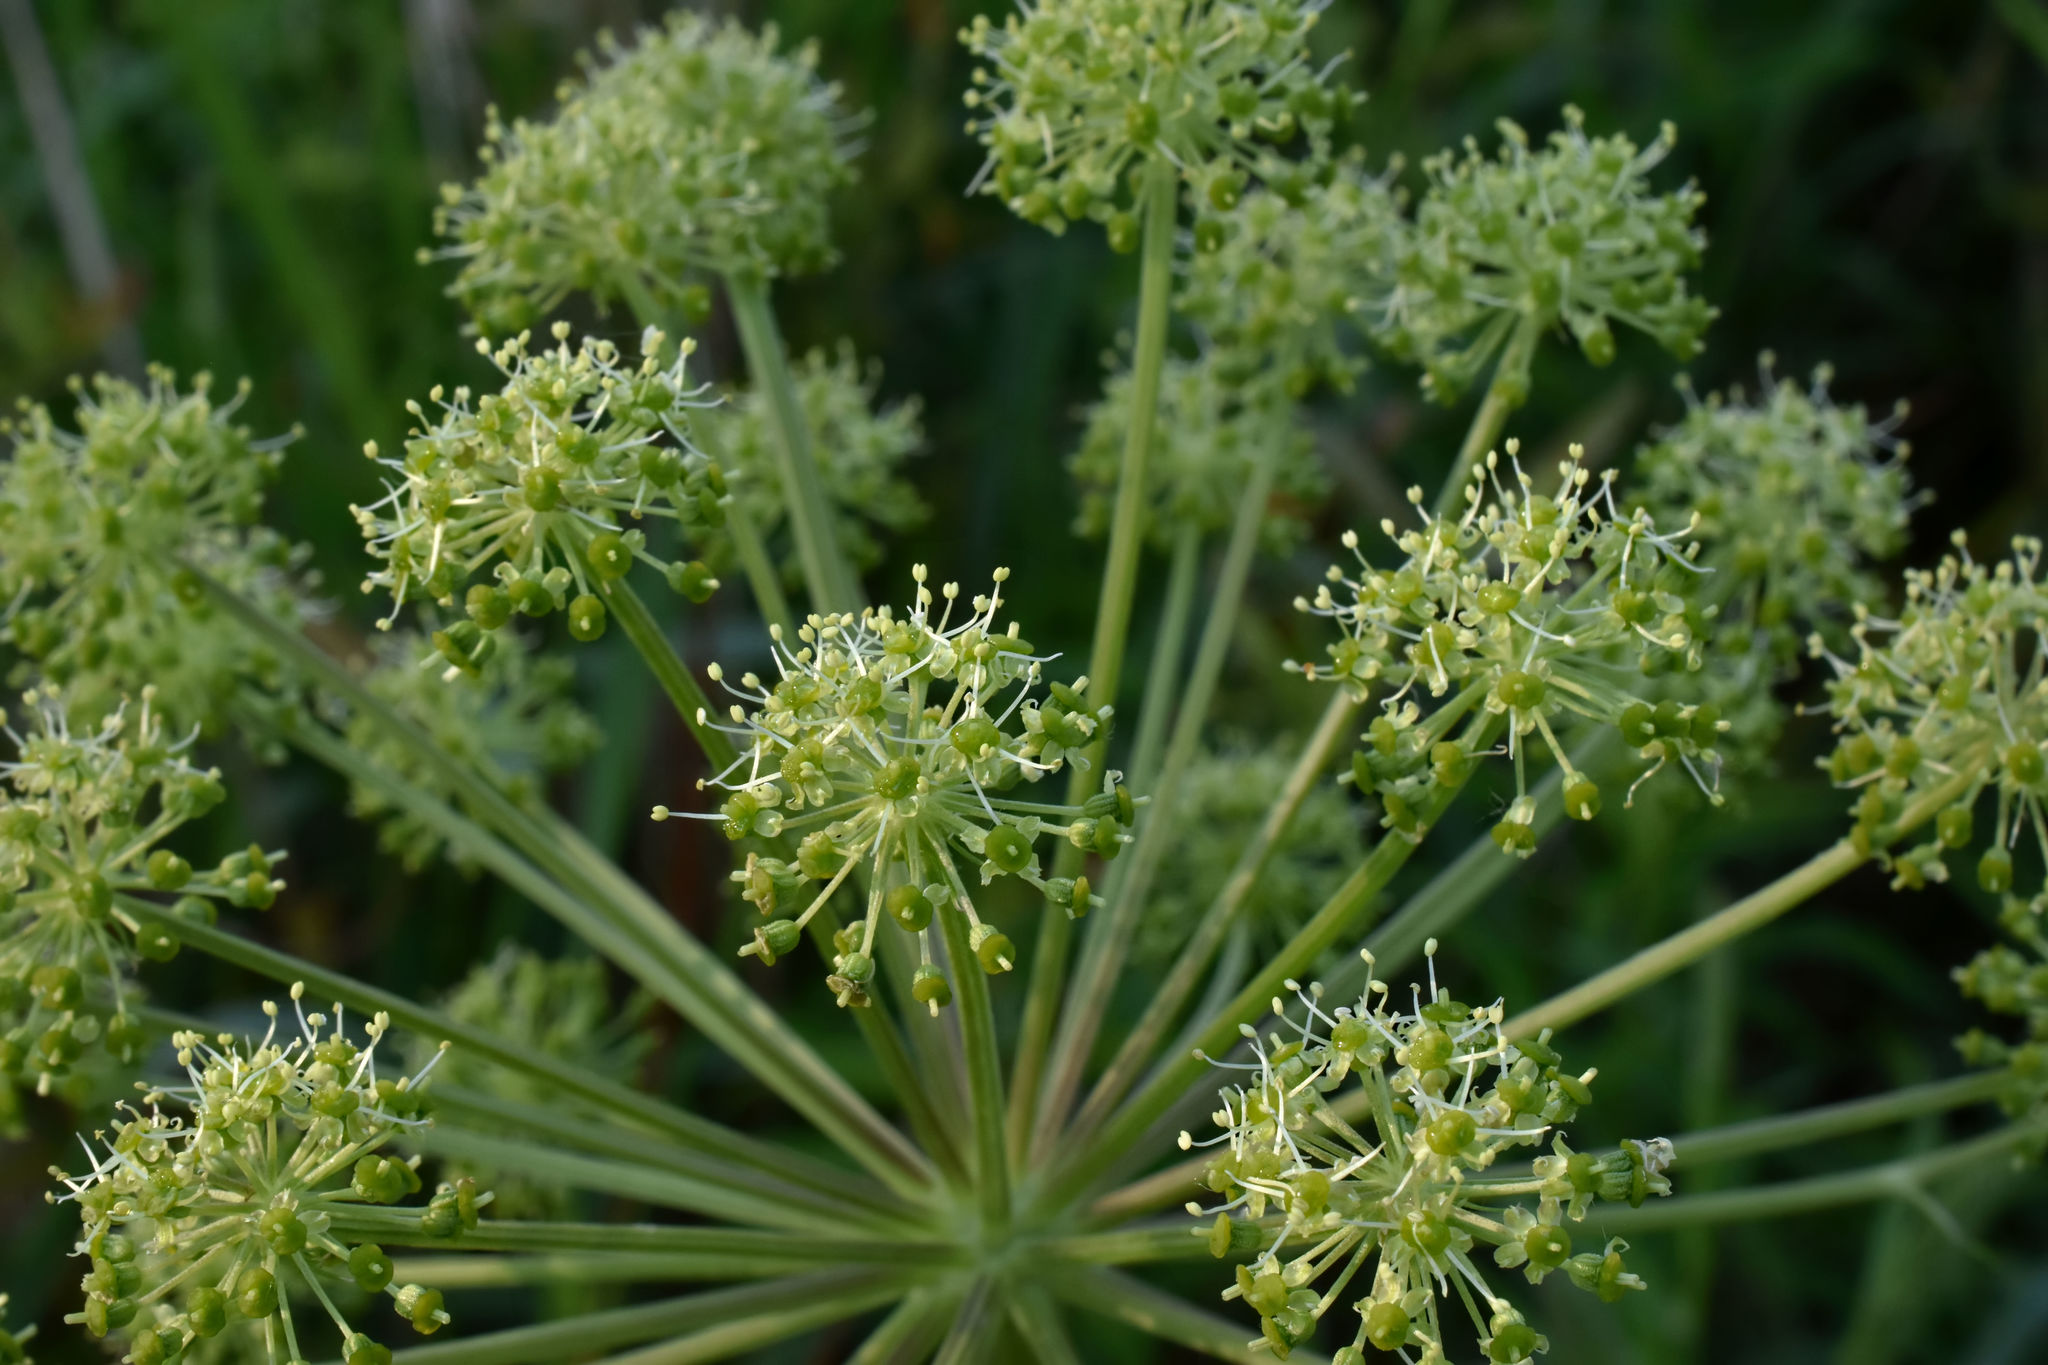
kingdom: Plantae
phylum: Tracheophyta
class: Magnoliopsida
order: Apiales
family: Apiaceae
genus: Angelica
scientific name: Angelica atropurpurea
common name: Great angelica
